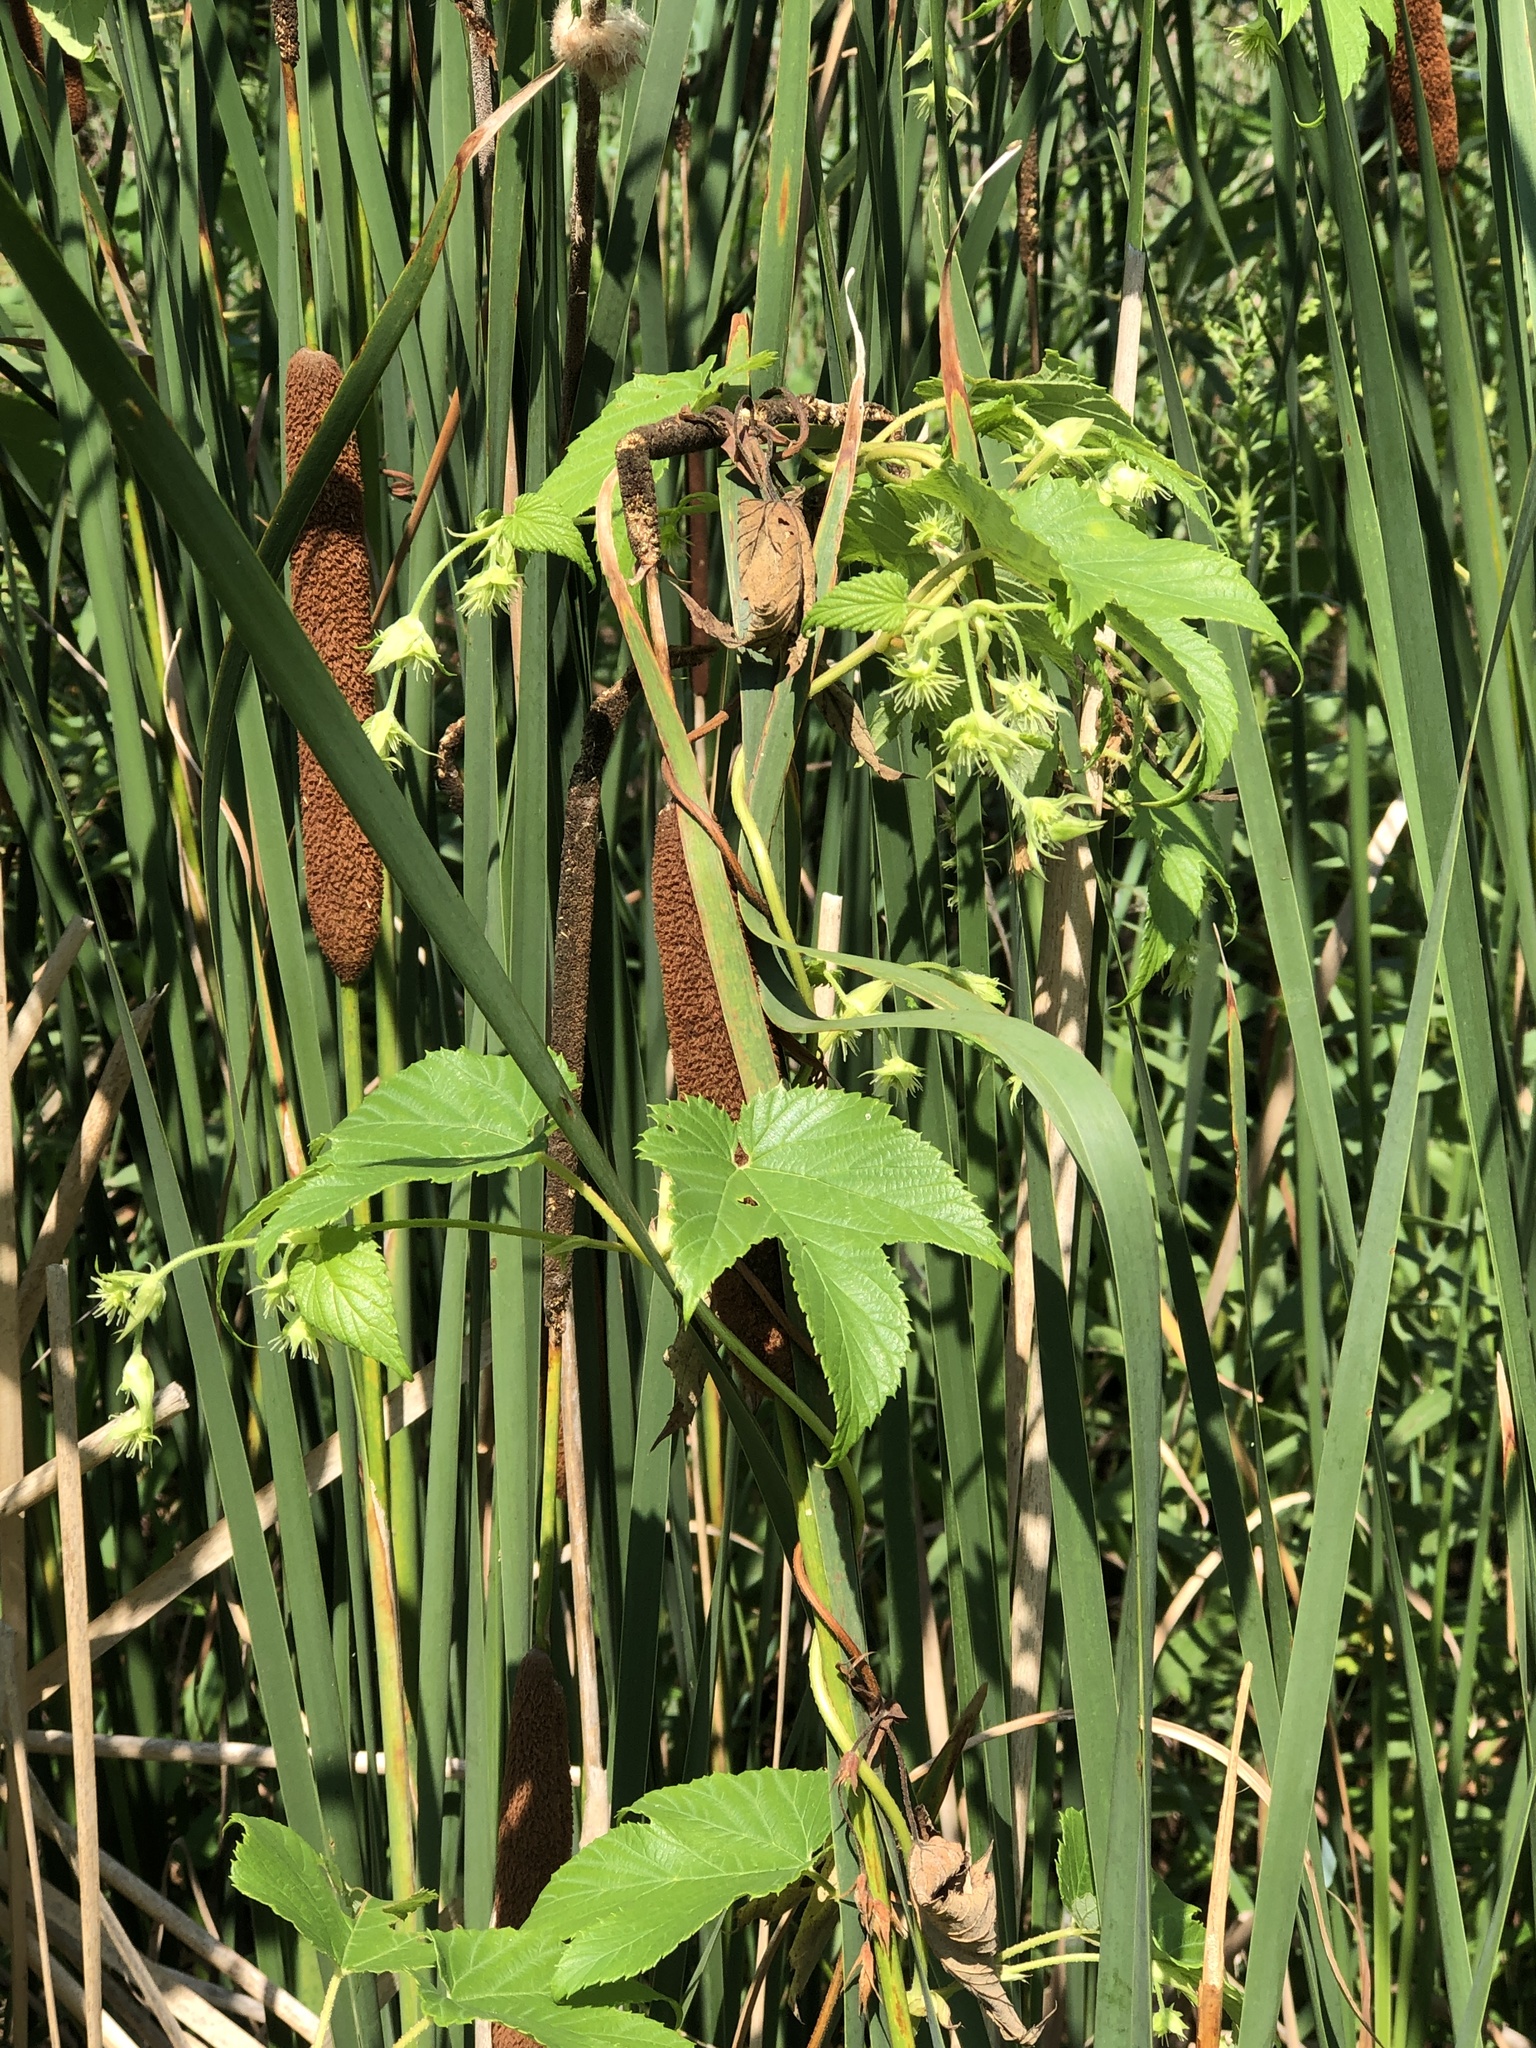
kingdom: Plantae
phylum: Tracheophyta
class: Magnoliopsida
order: Rosales
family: Cannabaceae
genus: Humulus
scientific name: Humulus lupulus
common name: Hop
